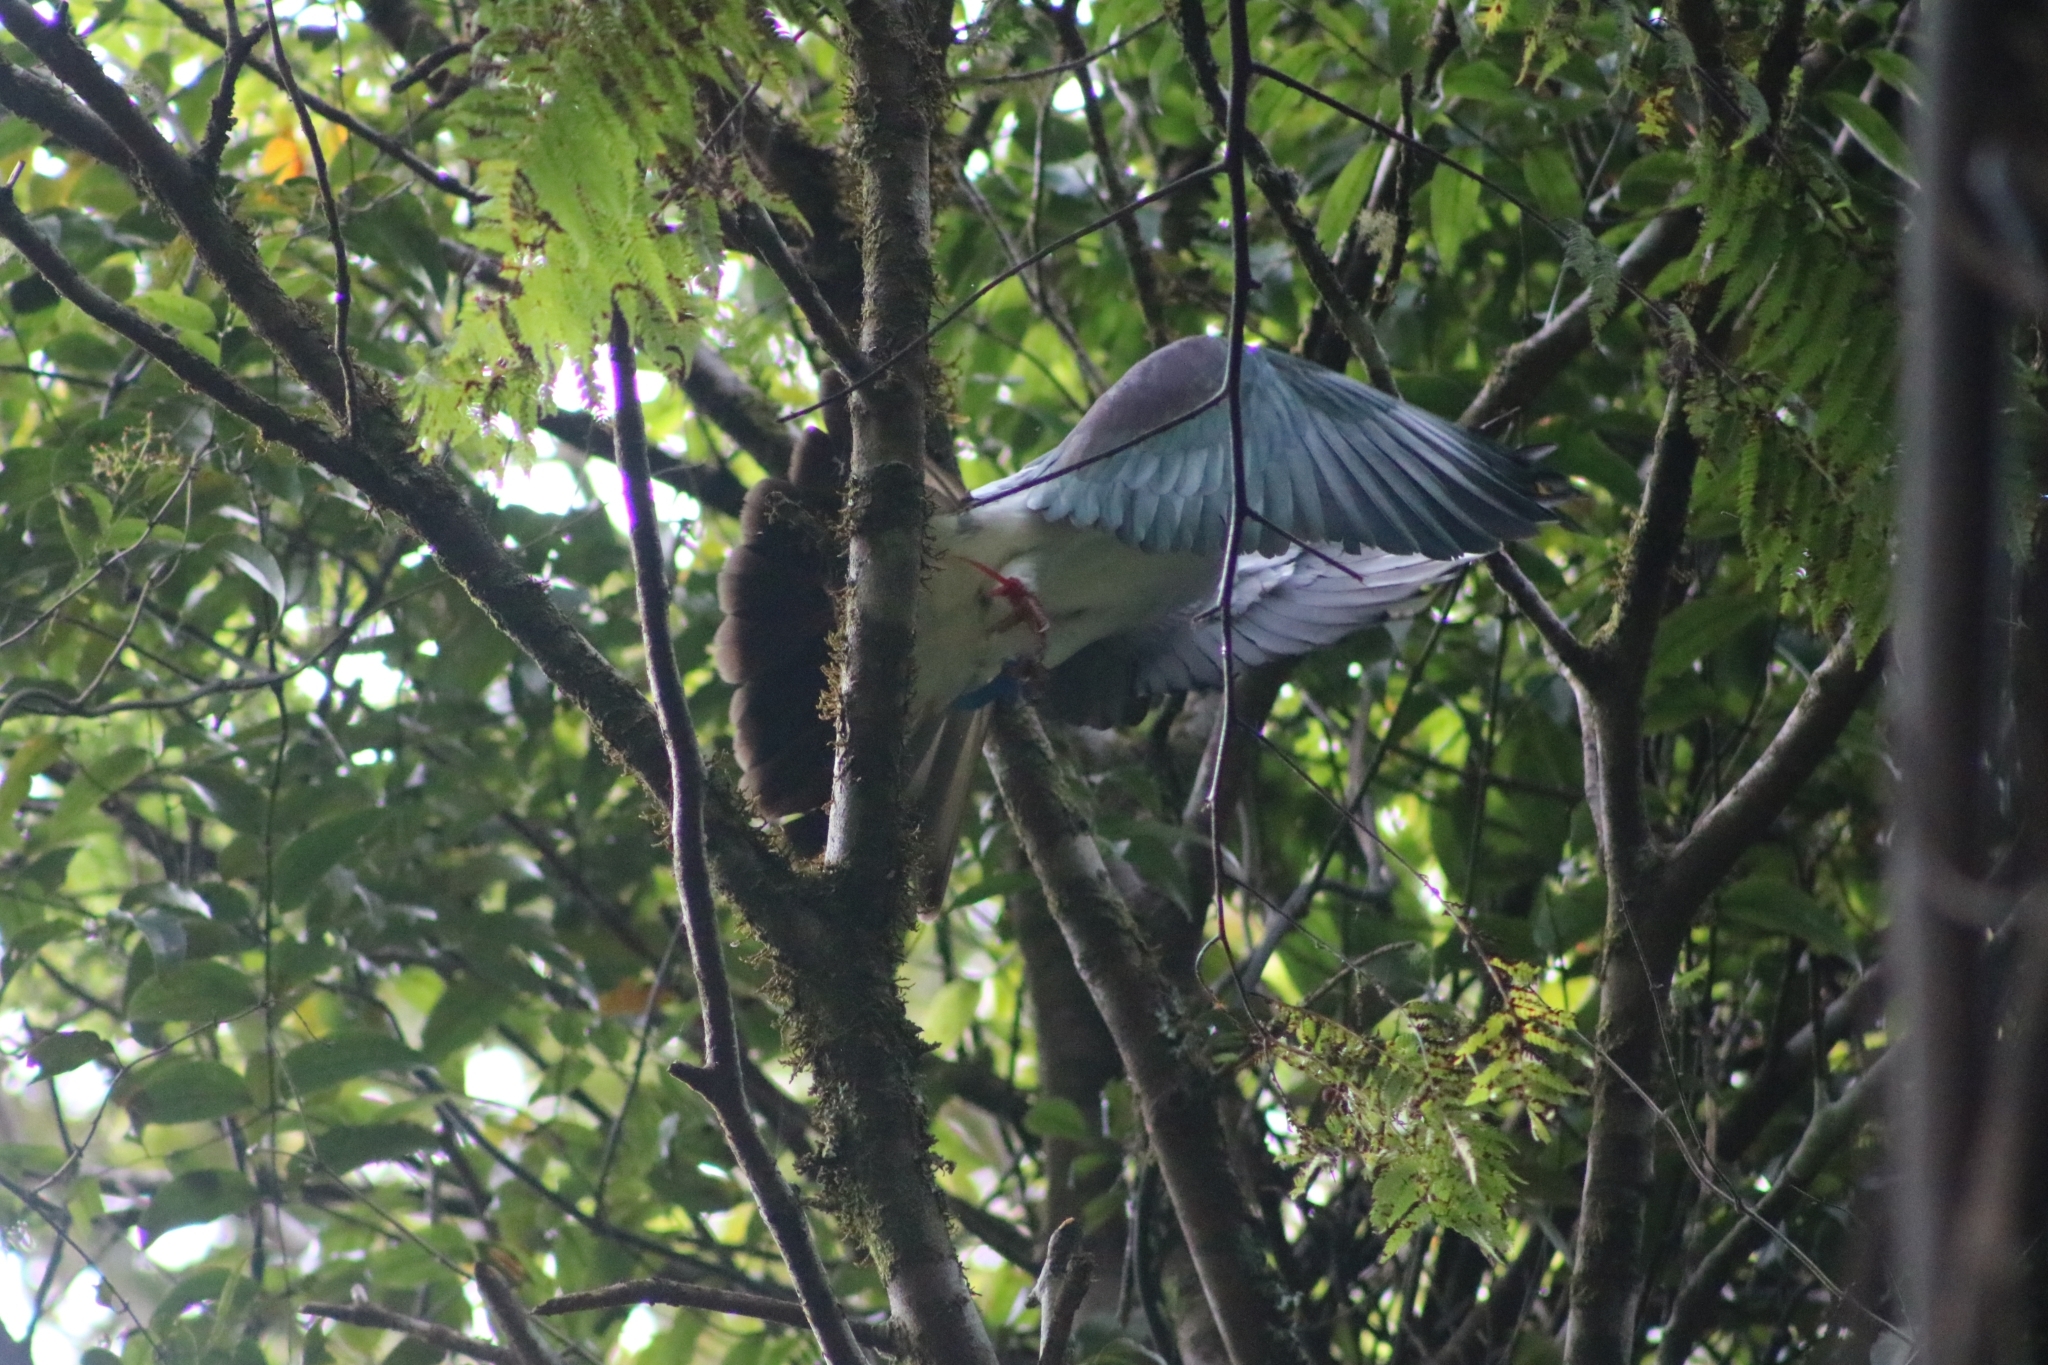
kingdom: Animalia
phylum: Chordata
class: Aves
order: Columbiformes
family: Columbidae
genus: Hemiphaga
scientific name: Hemiphaga novaeseelandiae
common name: New zealand pigeon
